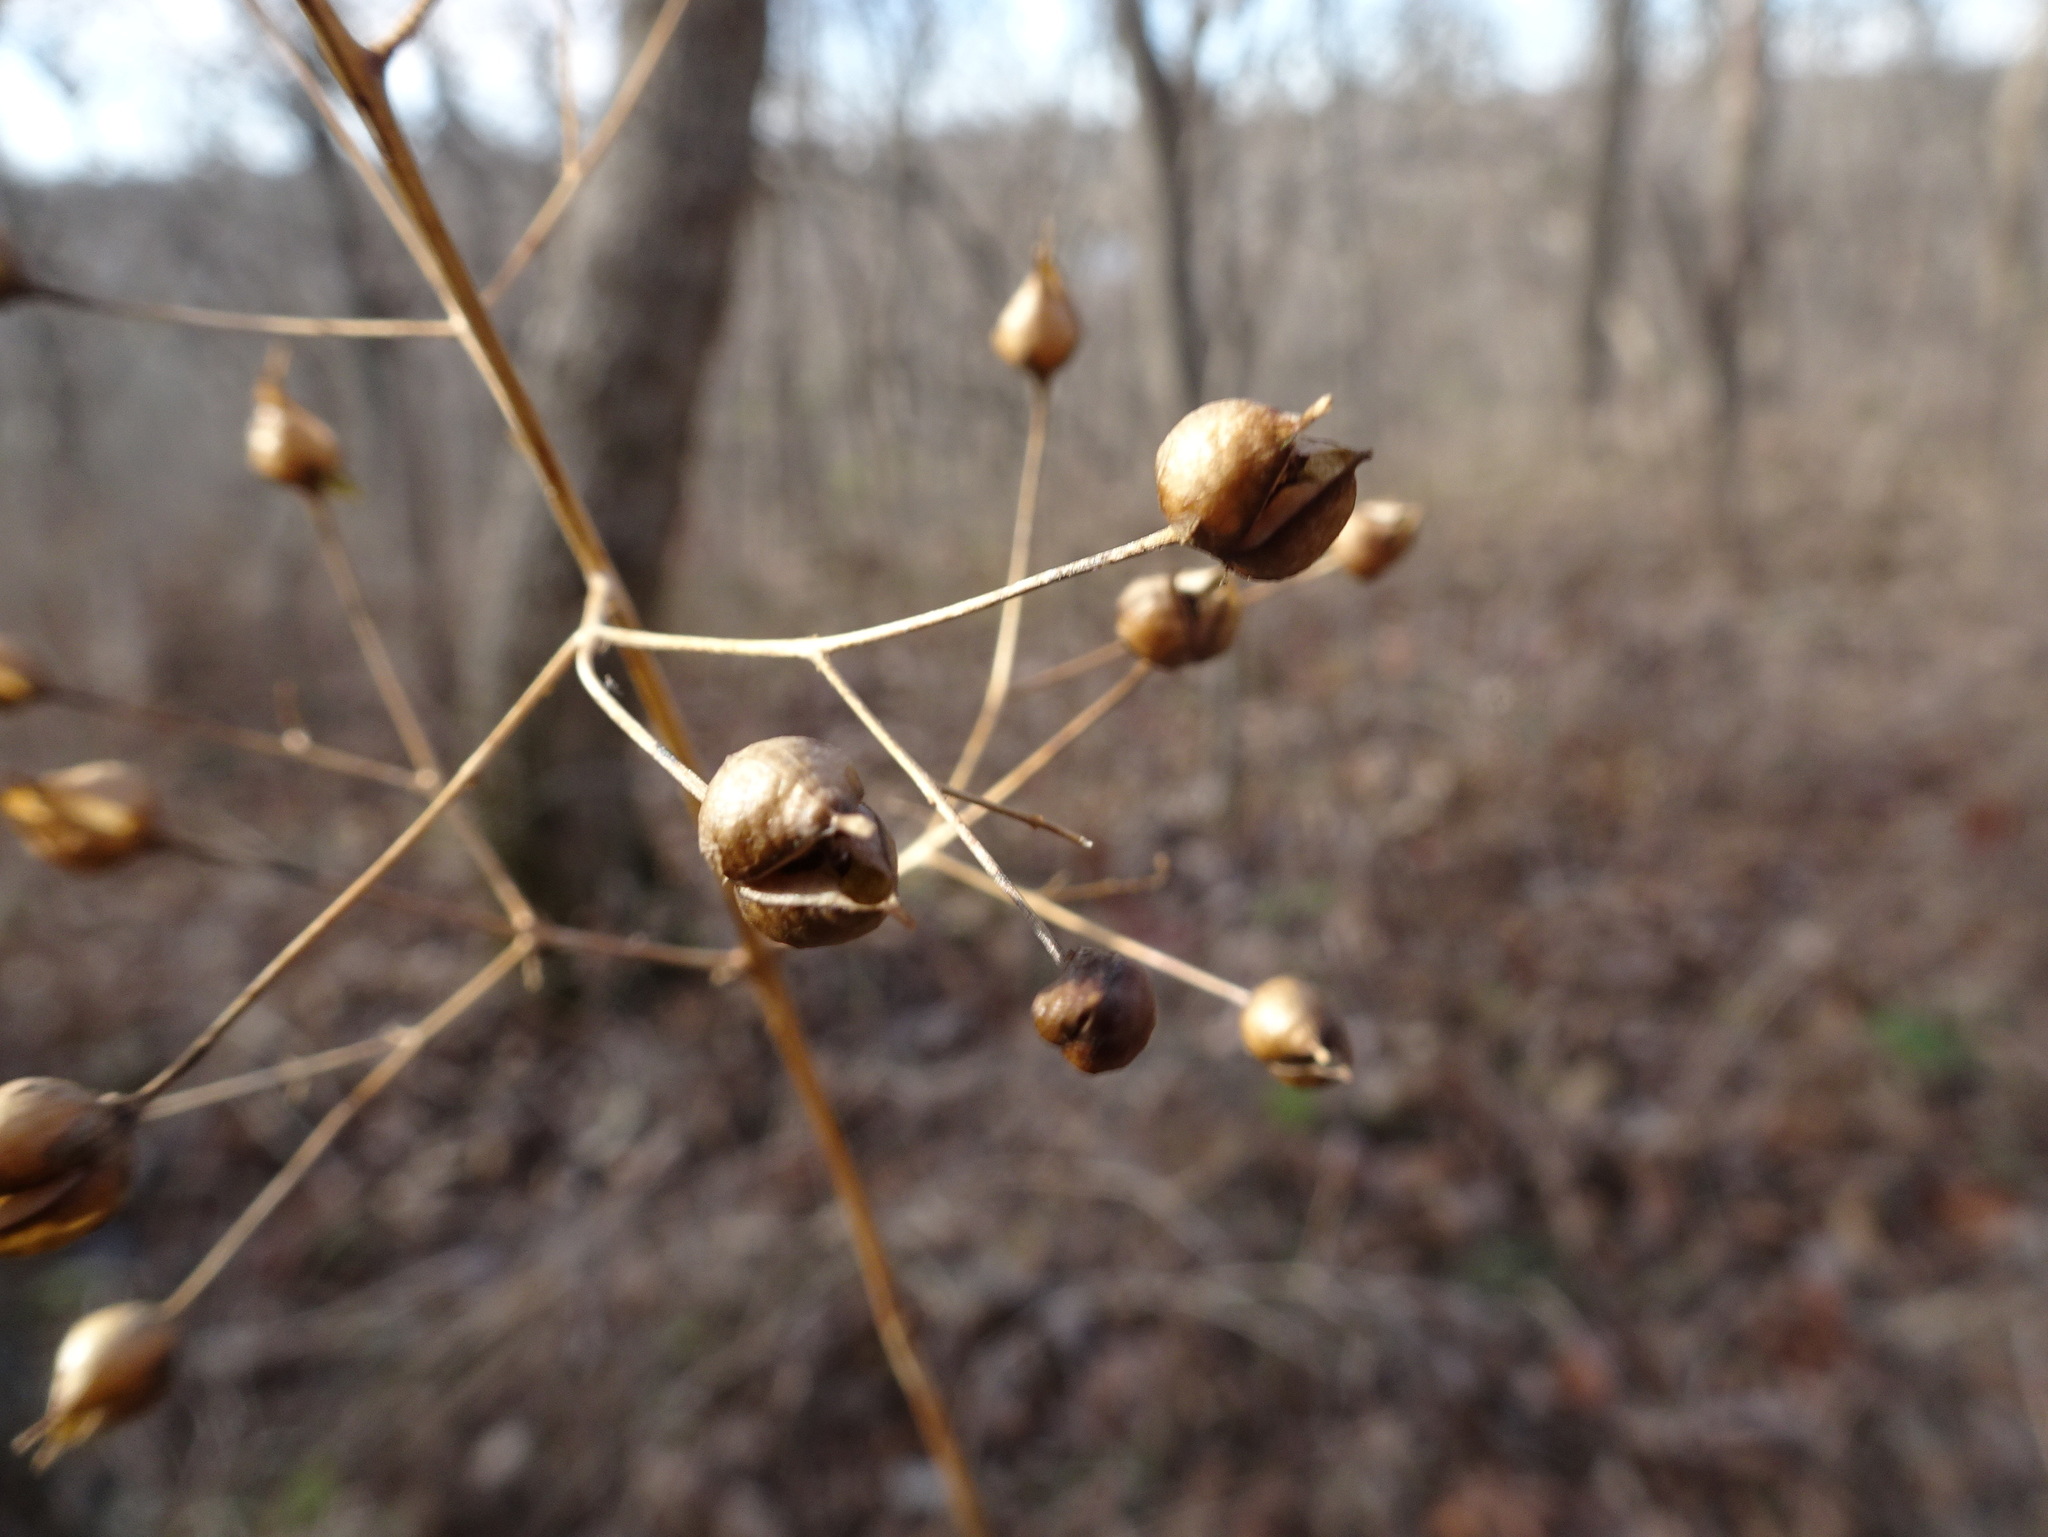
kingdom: Plantae
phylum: Tracheophyta
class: Magnoliopsida
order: Lamiales
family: Scrophulariaceae
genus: Scrophularia
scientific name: Scrophularia marilandica
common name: Eastern figwort
